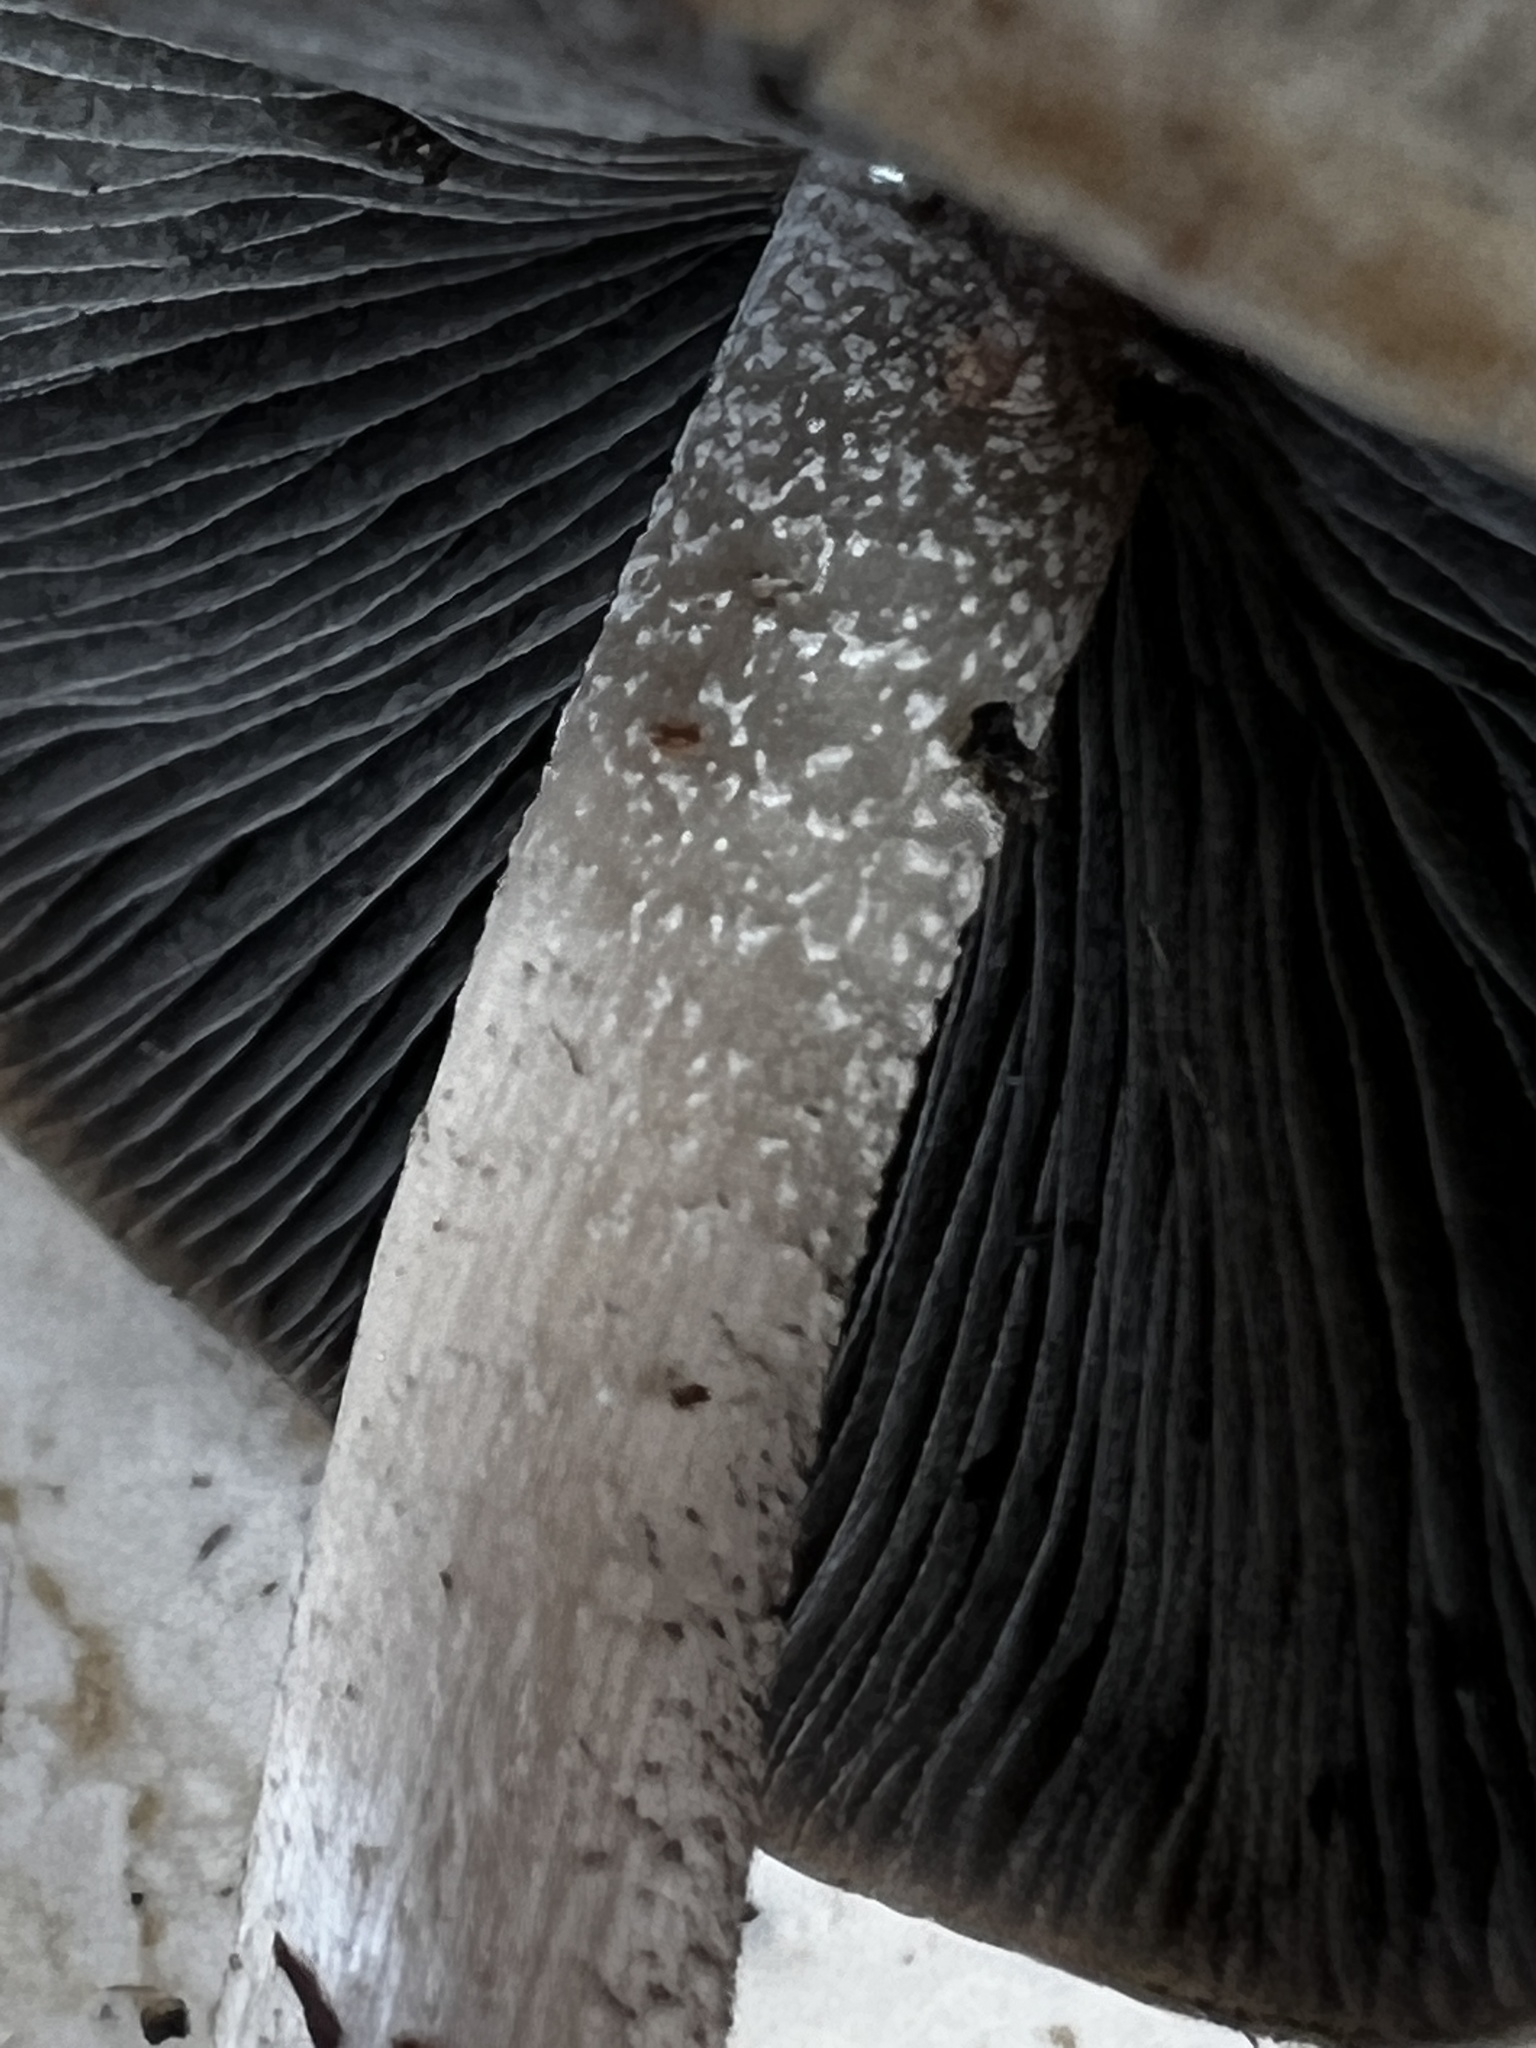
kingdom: Fungi
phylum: Basidiomycota
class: Agaricomycetes
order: Agaricales
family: Bolbitiaceae
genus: Panaeolus
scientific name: Panaeolus fraxinophilus
